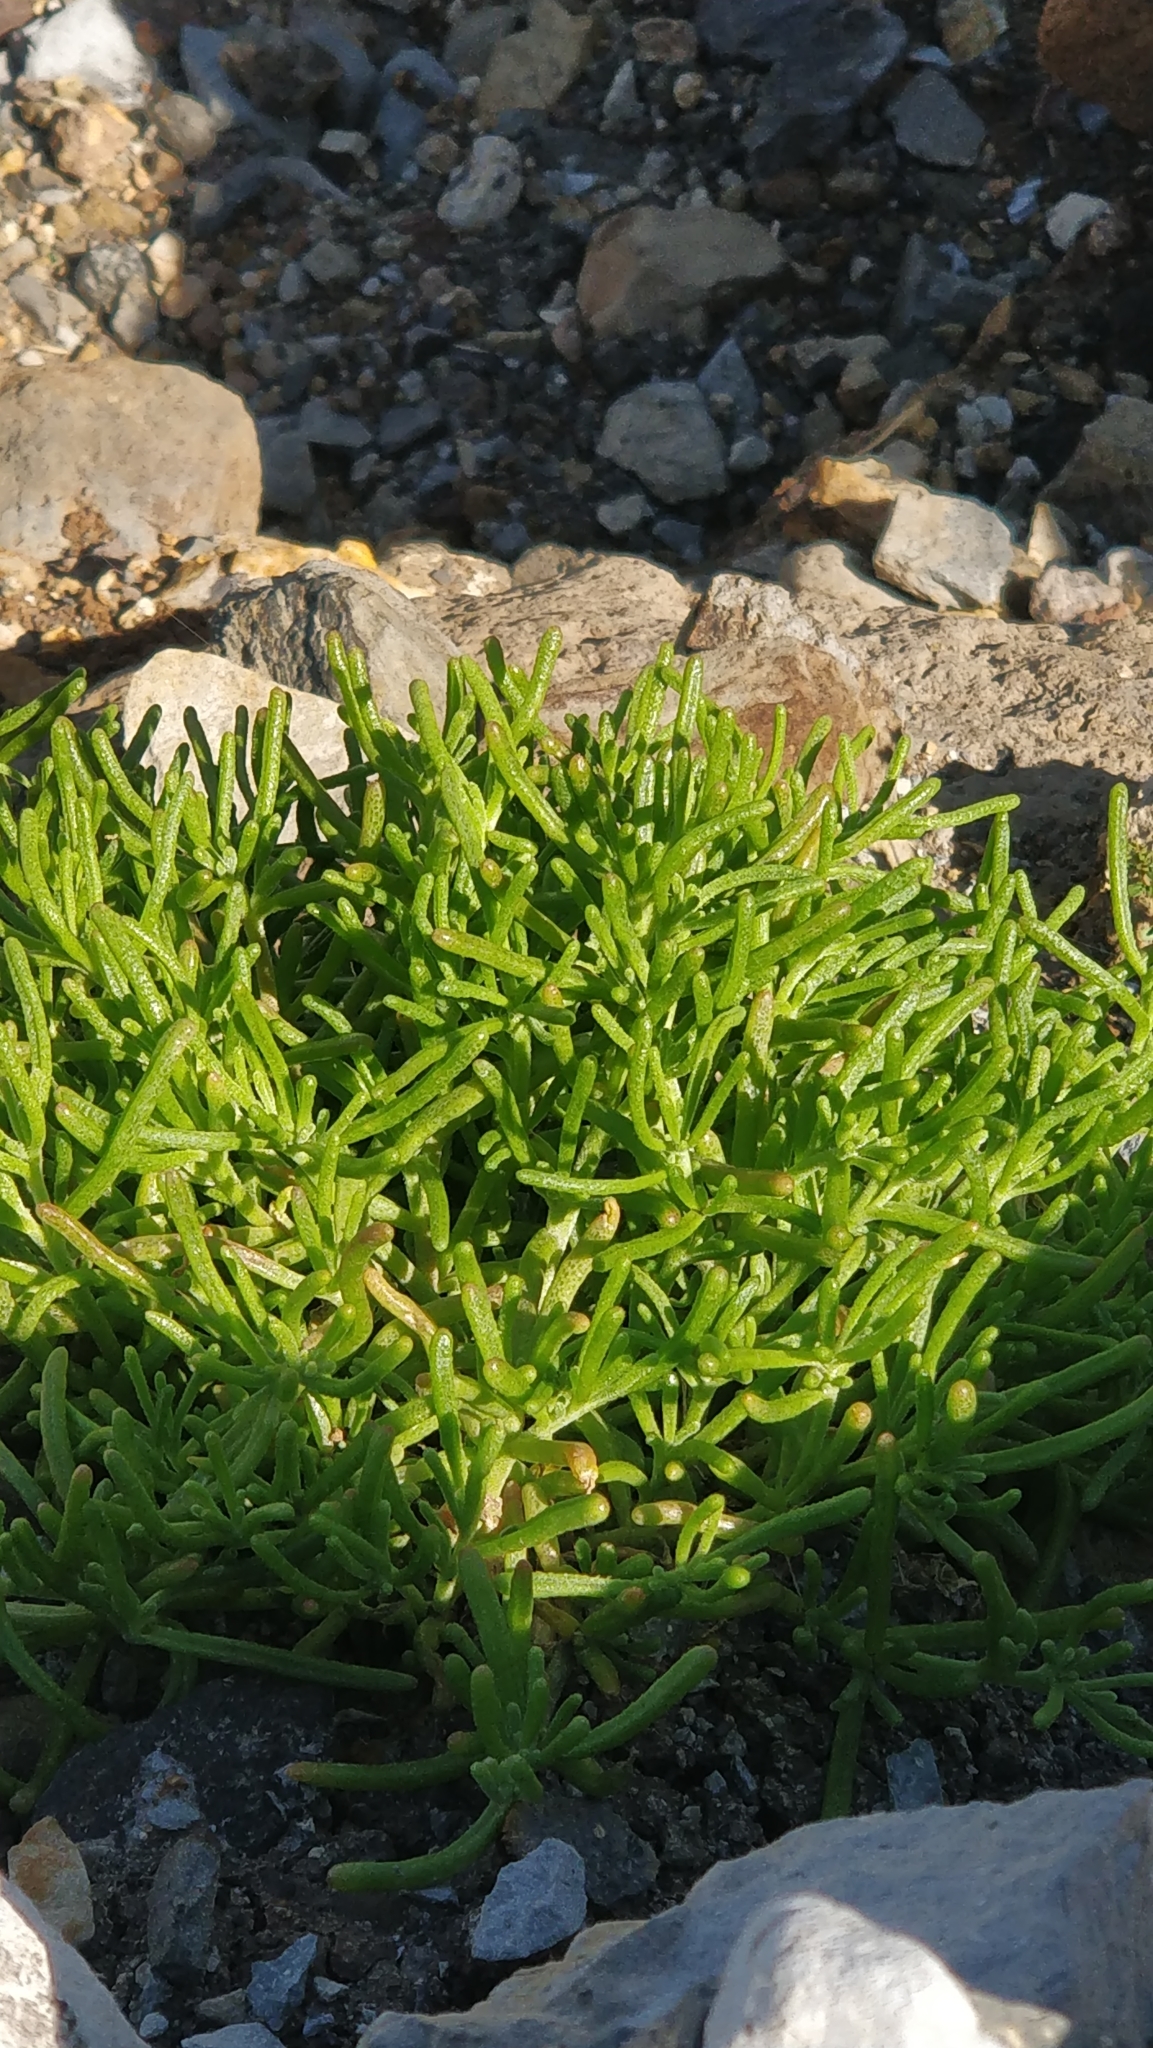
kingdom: Plantae
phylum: Tracheophyta
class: Magnoliopsida
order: Caryophyllales
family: Aizoaceae
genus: Mesembryanthemum
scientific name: Mesembryanthemum nodiflorum
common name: Slenderleaf iceplant
